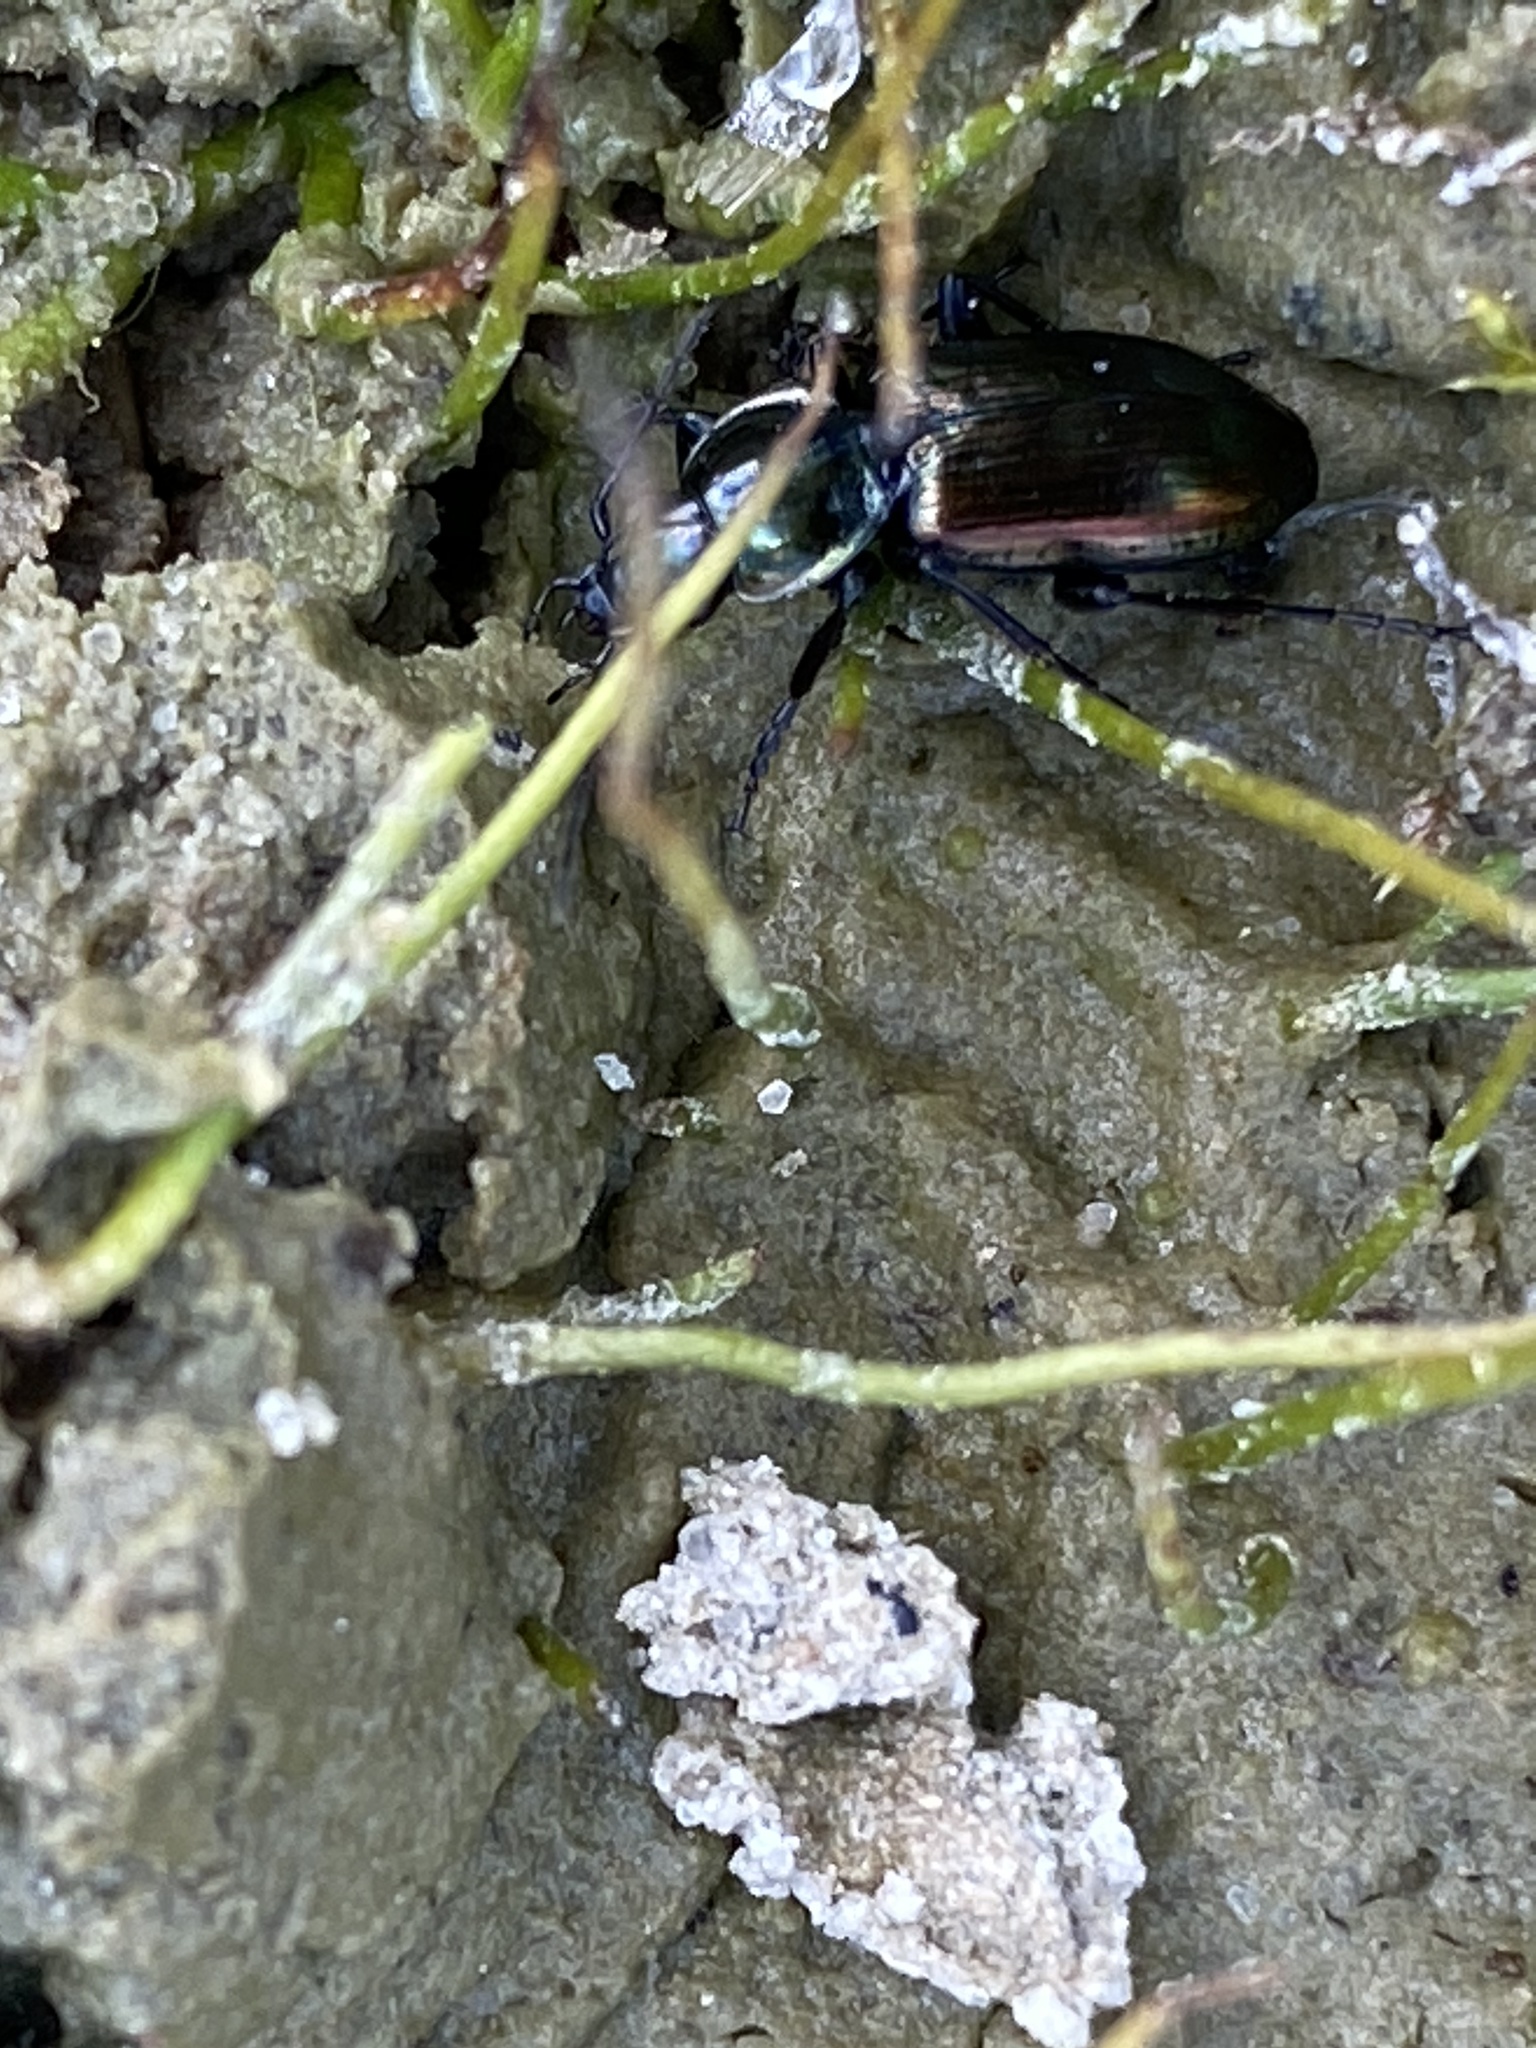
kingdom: Animalia
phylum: Arthropoda
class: Insecta
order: Coleoptera
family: Carabidae
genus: Agonum
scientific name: Agonum sexpunctatum
